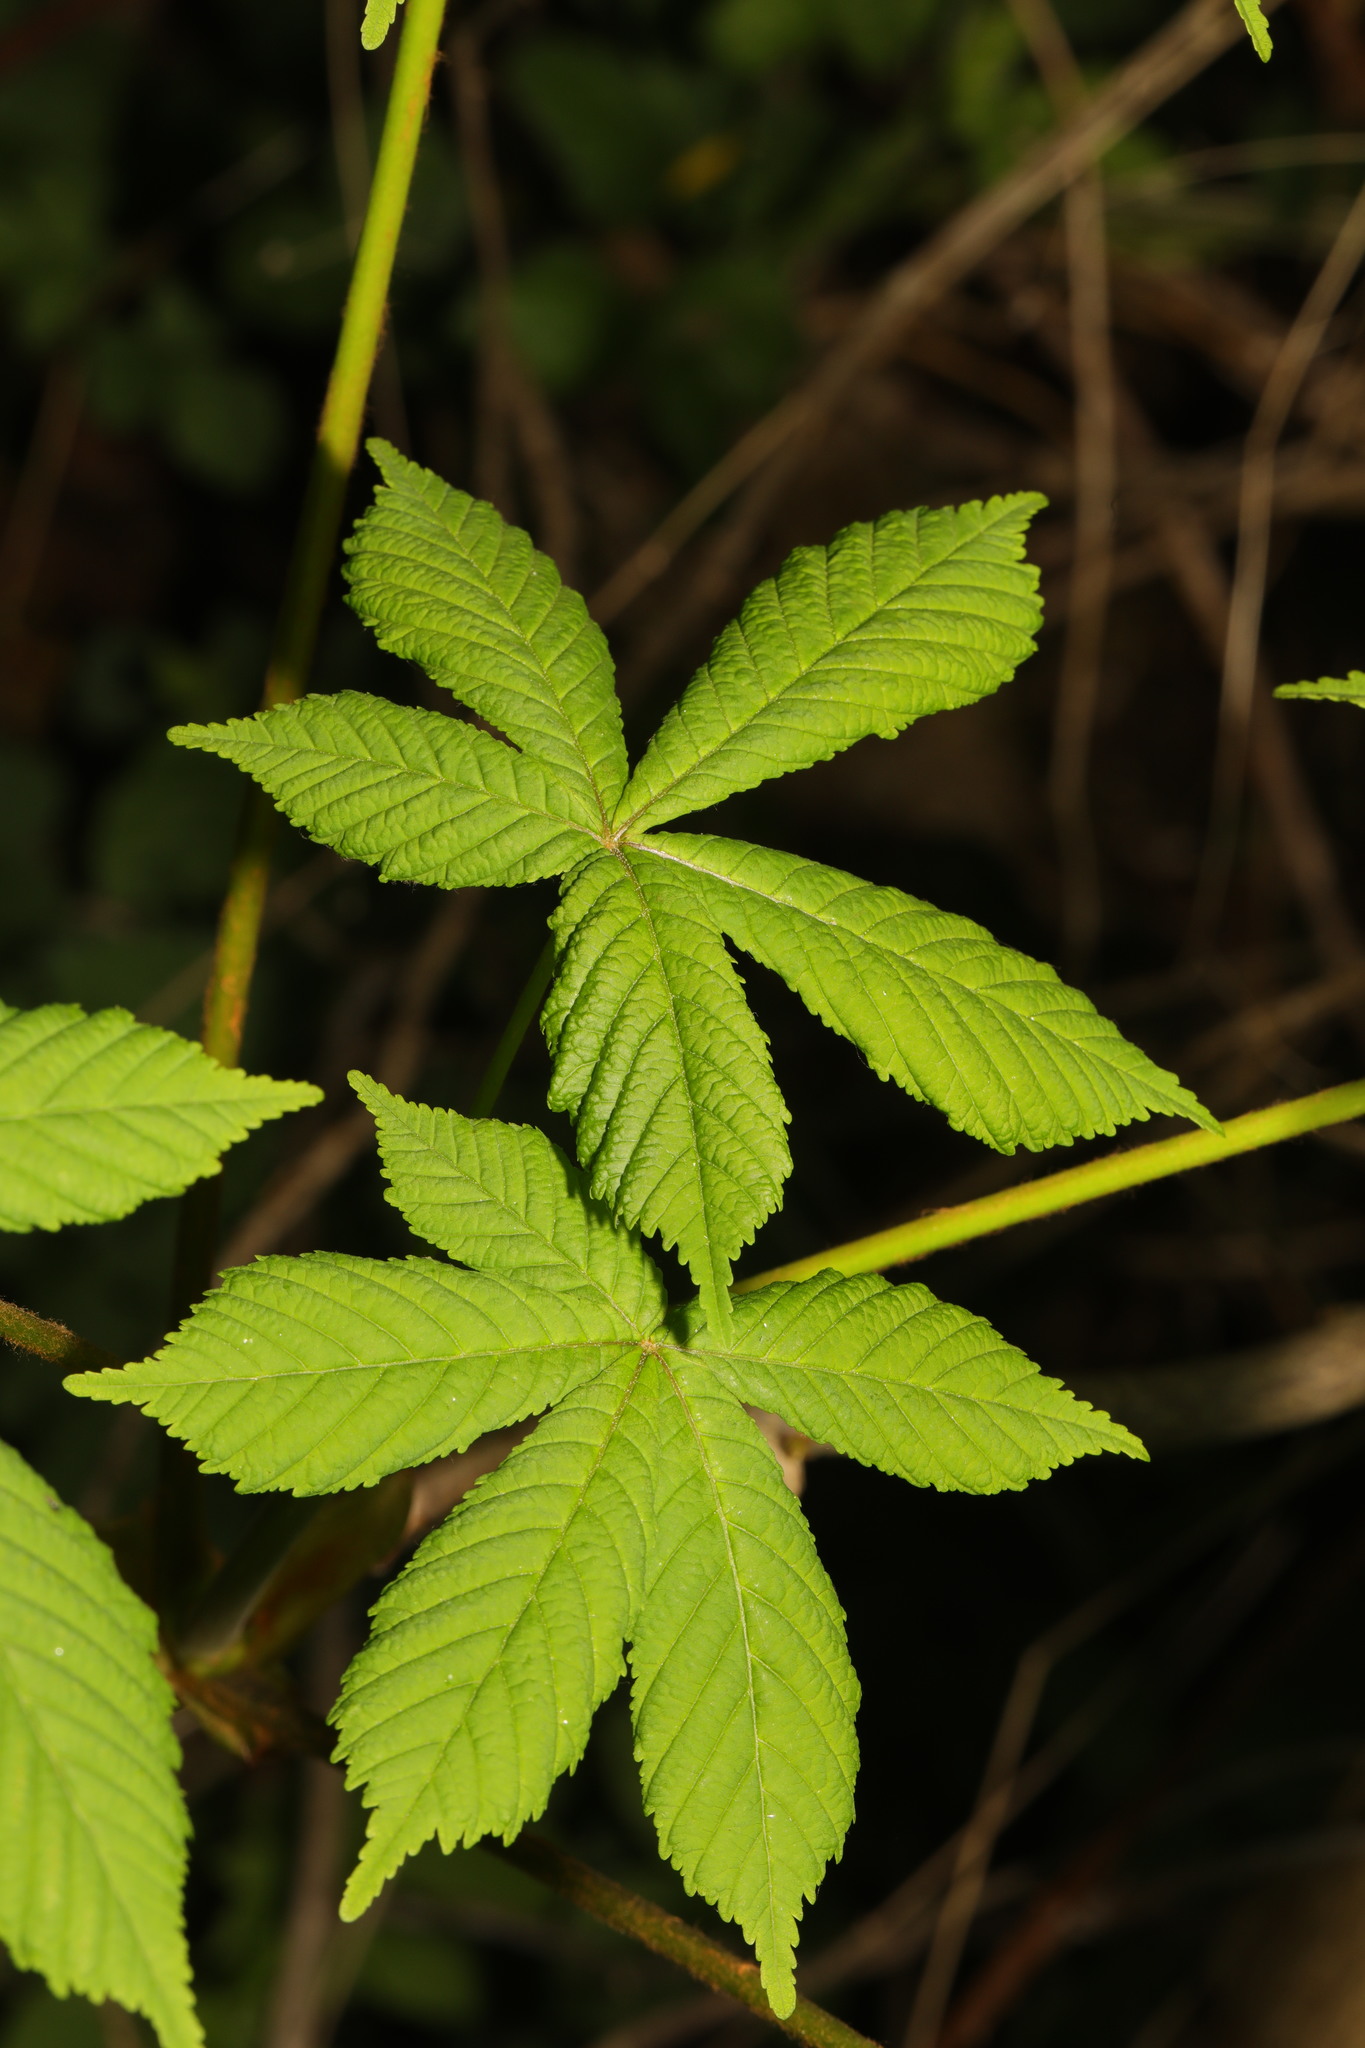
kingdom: Plantae
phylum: Tracheophyta
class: Magnoliopsida
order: Sapindales
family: Sapindaceae
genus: Aesculus
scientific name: Aesculus hippocastanum
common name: Horse-chestnut
